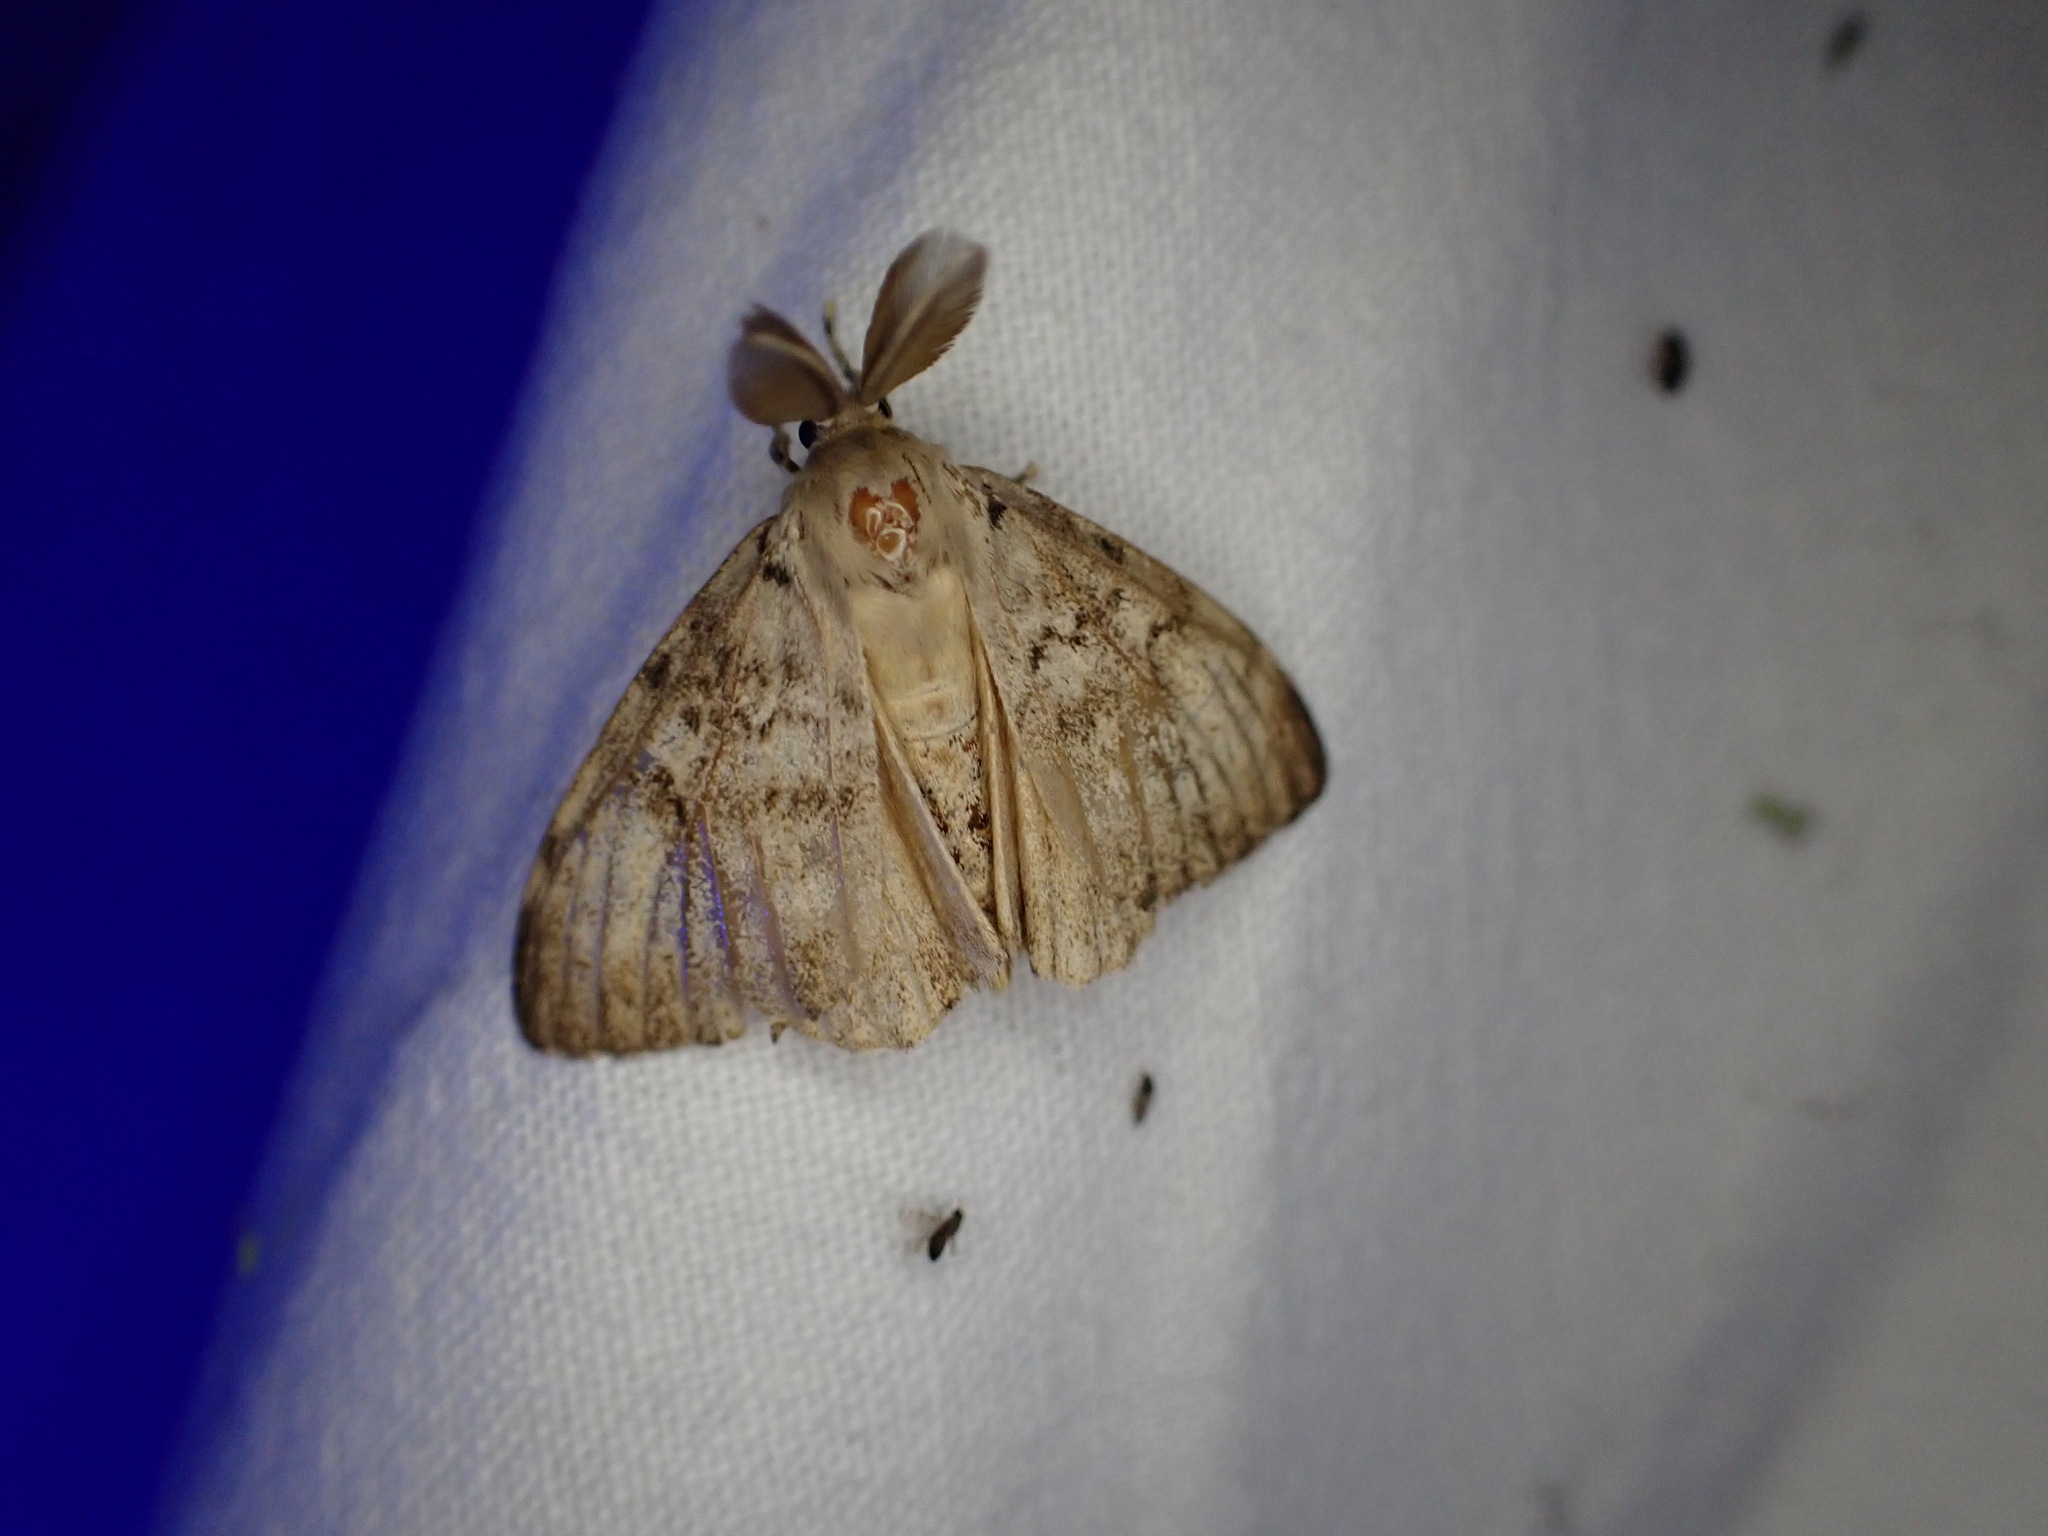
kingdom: Animalia
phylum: Arthropoda
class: Insecta
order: Lepidoptera
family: Erebidae
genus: Lymantria
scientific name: Lymantria dispar
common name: Gypsy moth
